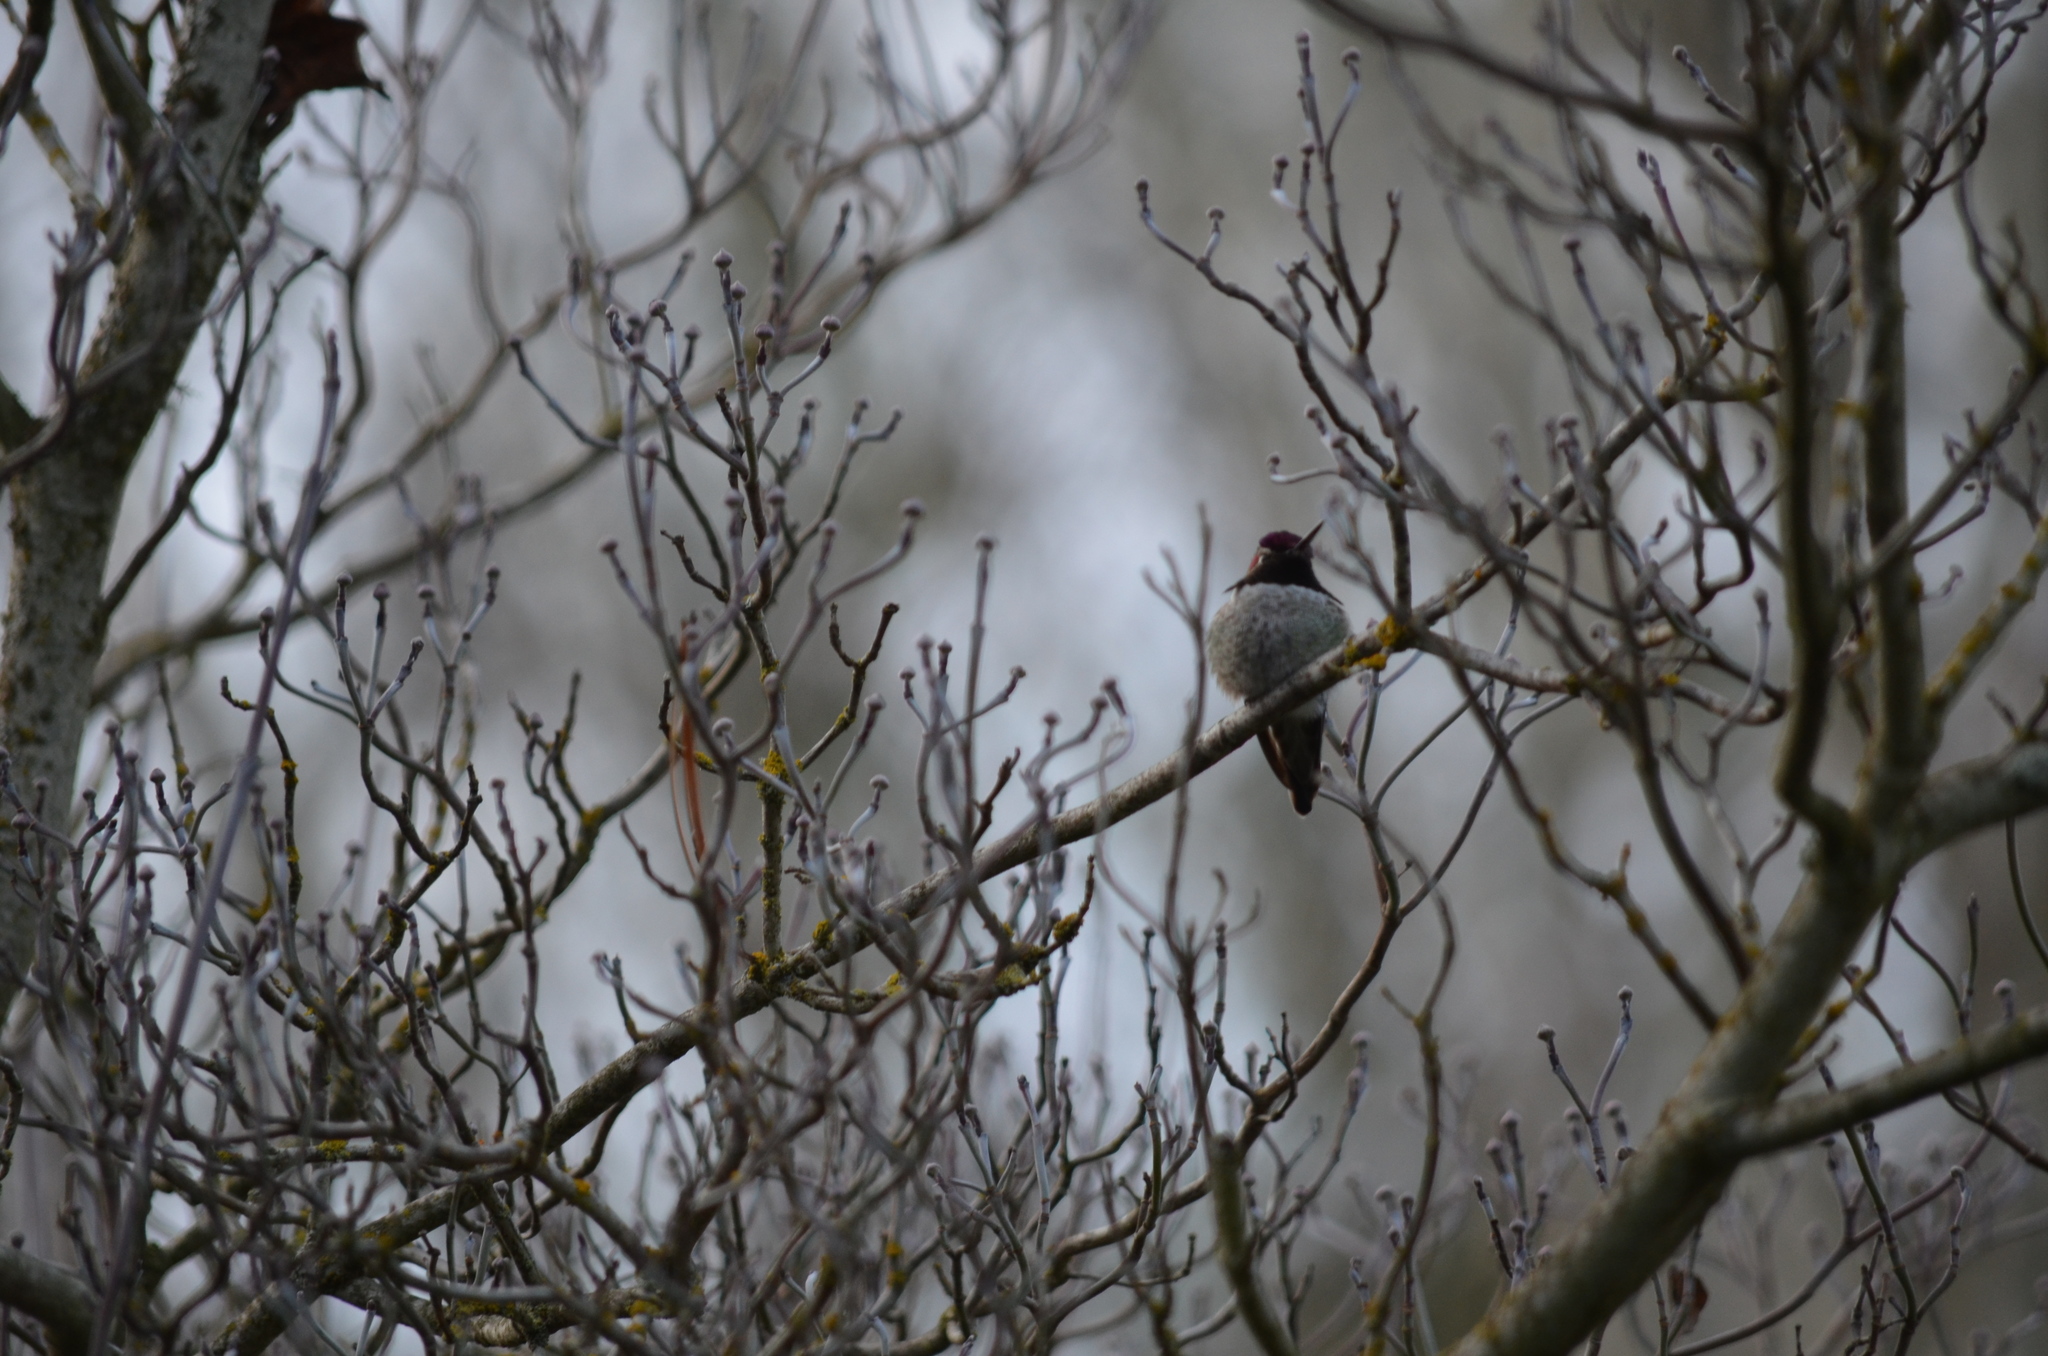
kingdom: Animalia
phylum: Chordata
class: Aves
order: Apodiformes
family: Trochilidae
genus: Calypte
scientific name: Calypte anna
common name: Anna's hummingbird
